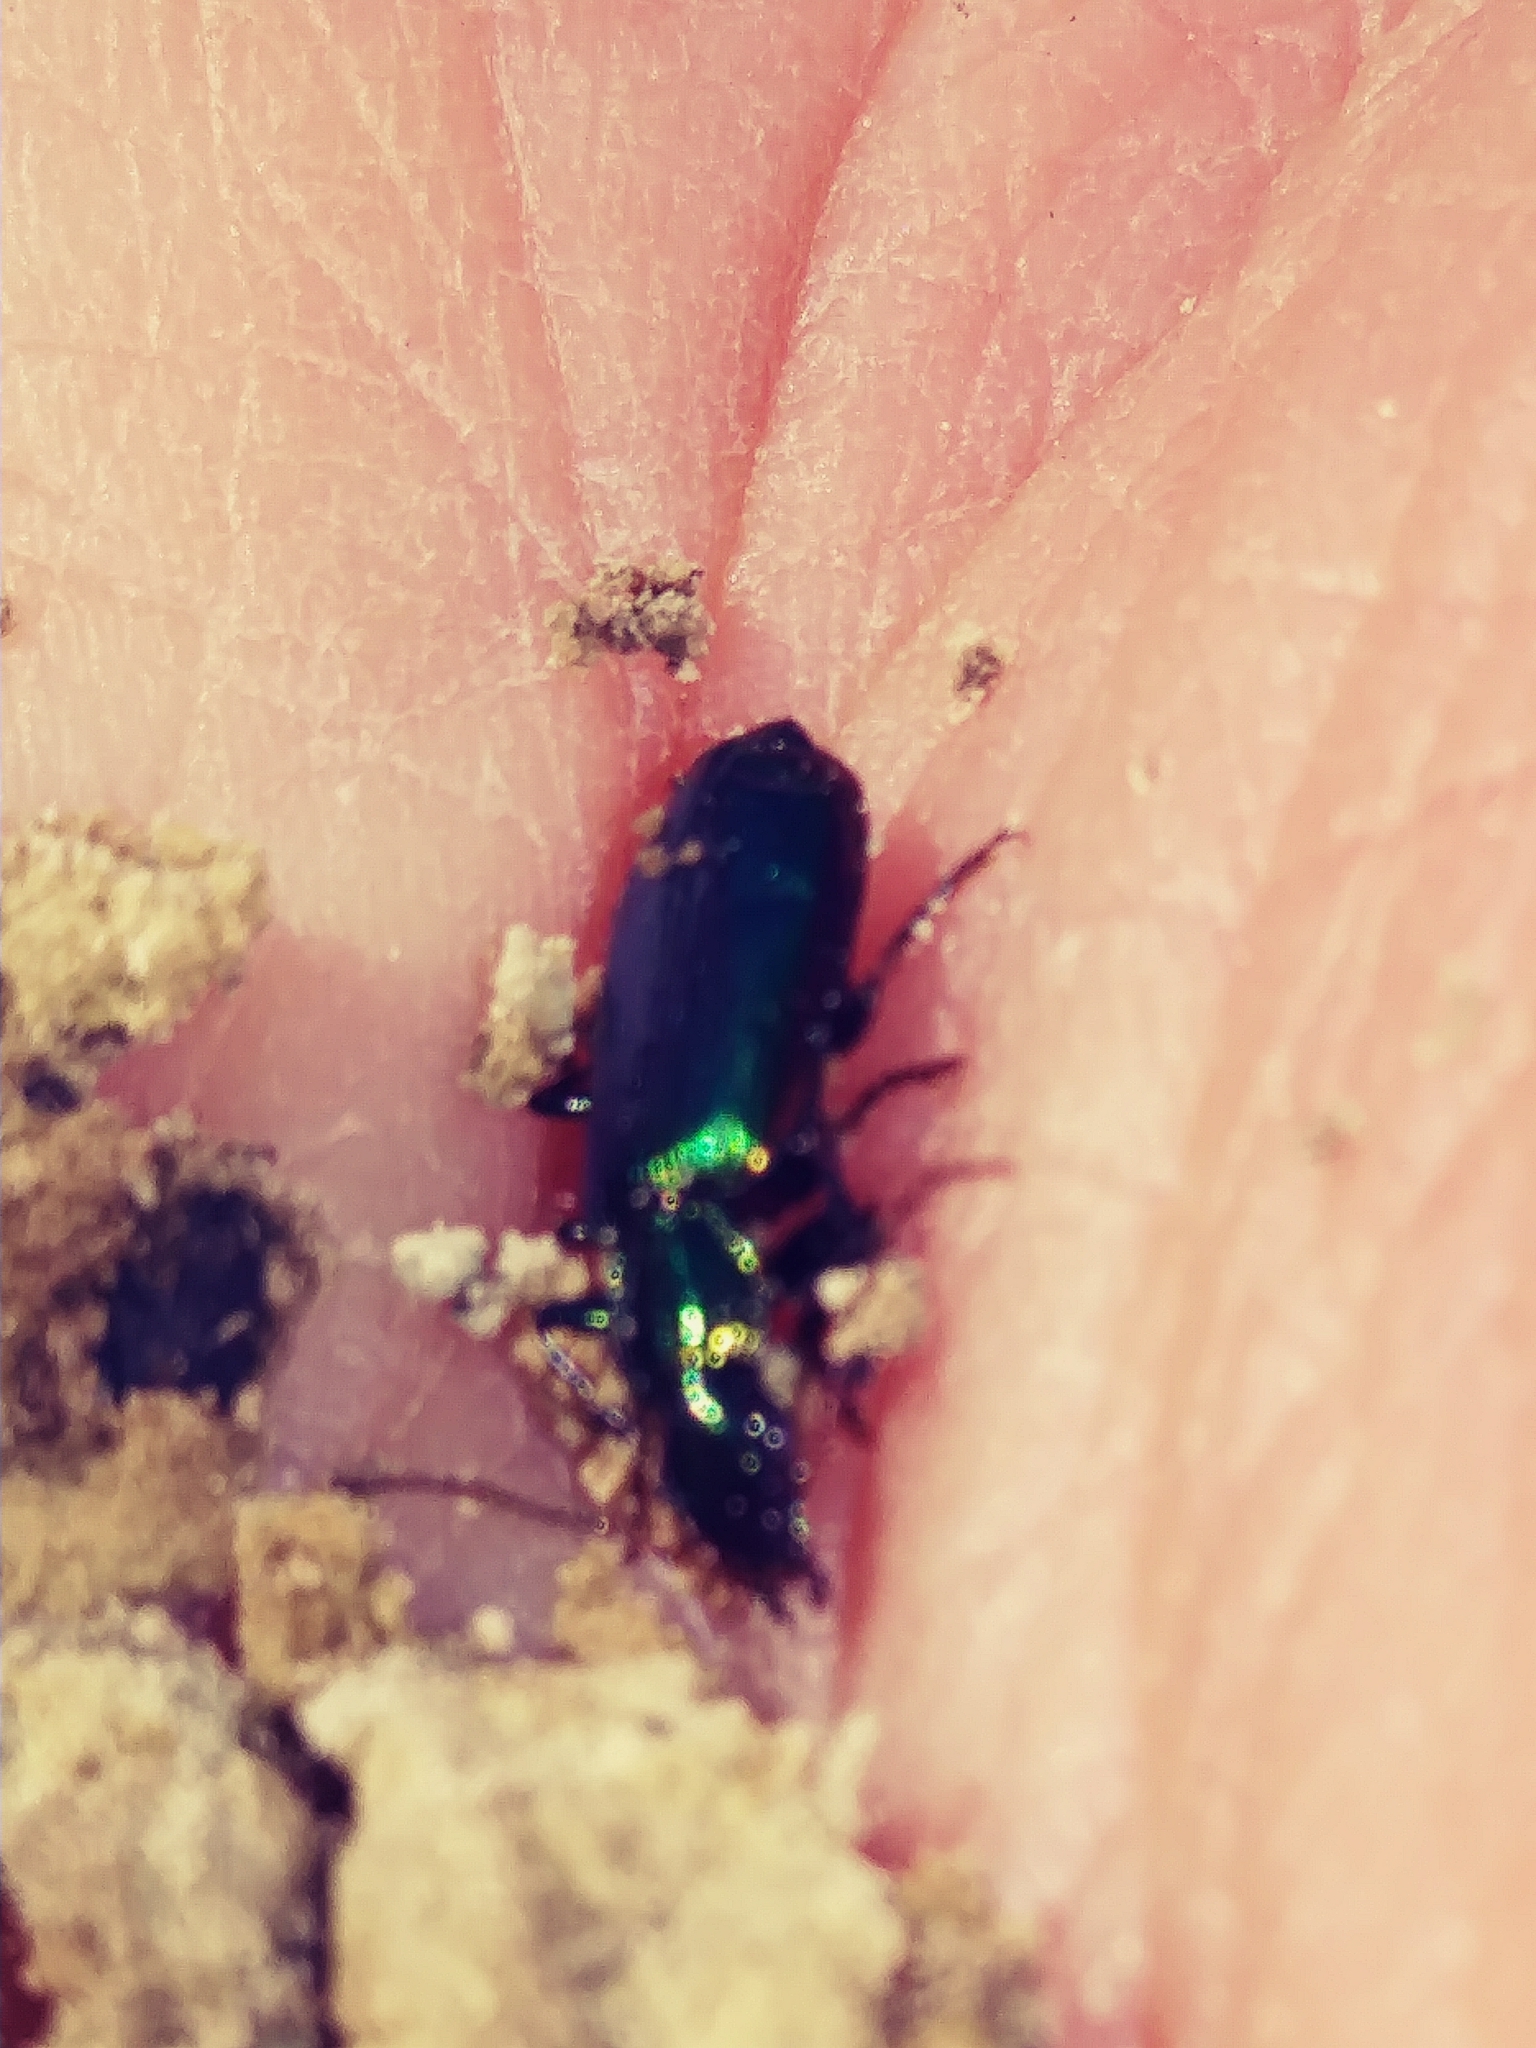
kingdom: Animalia
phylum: Arthropoda
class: Insecta
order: Coleoptera
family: Carabidae
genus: Calleida
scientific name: Calleida viridipennis
